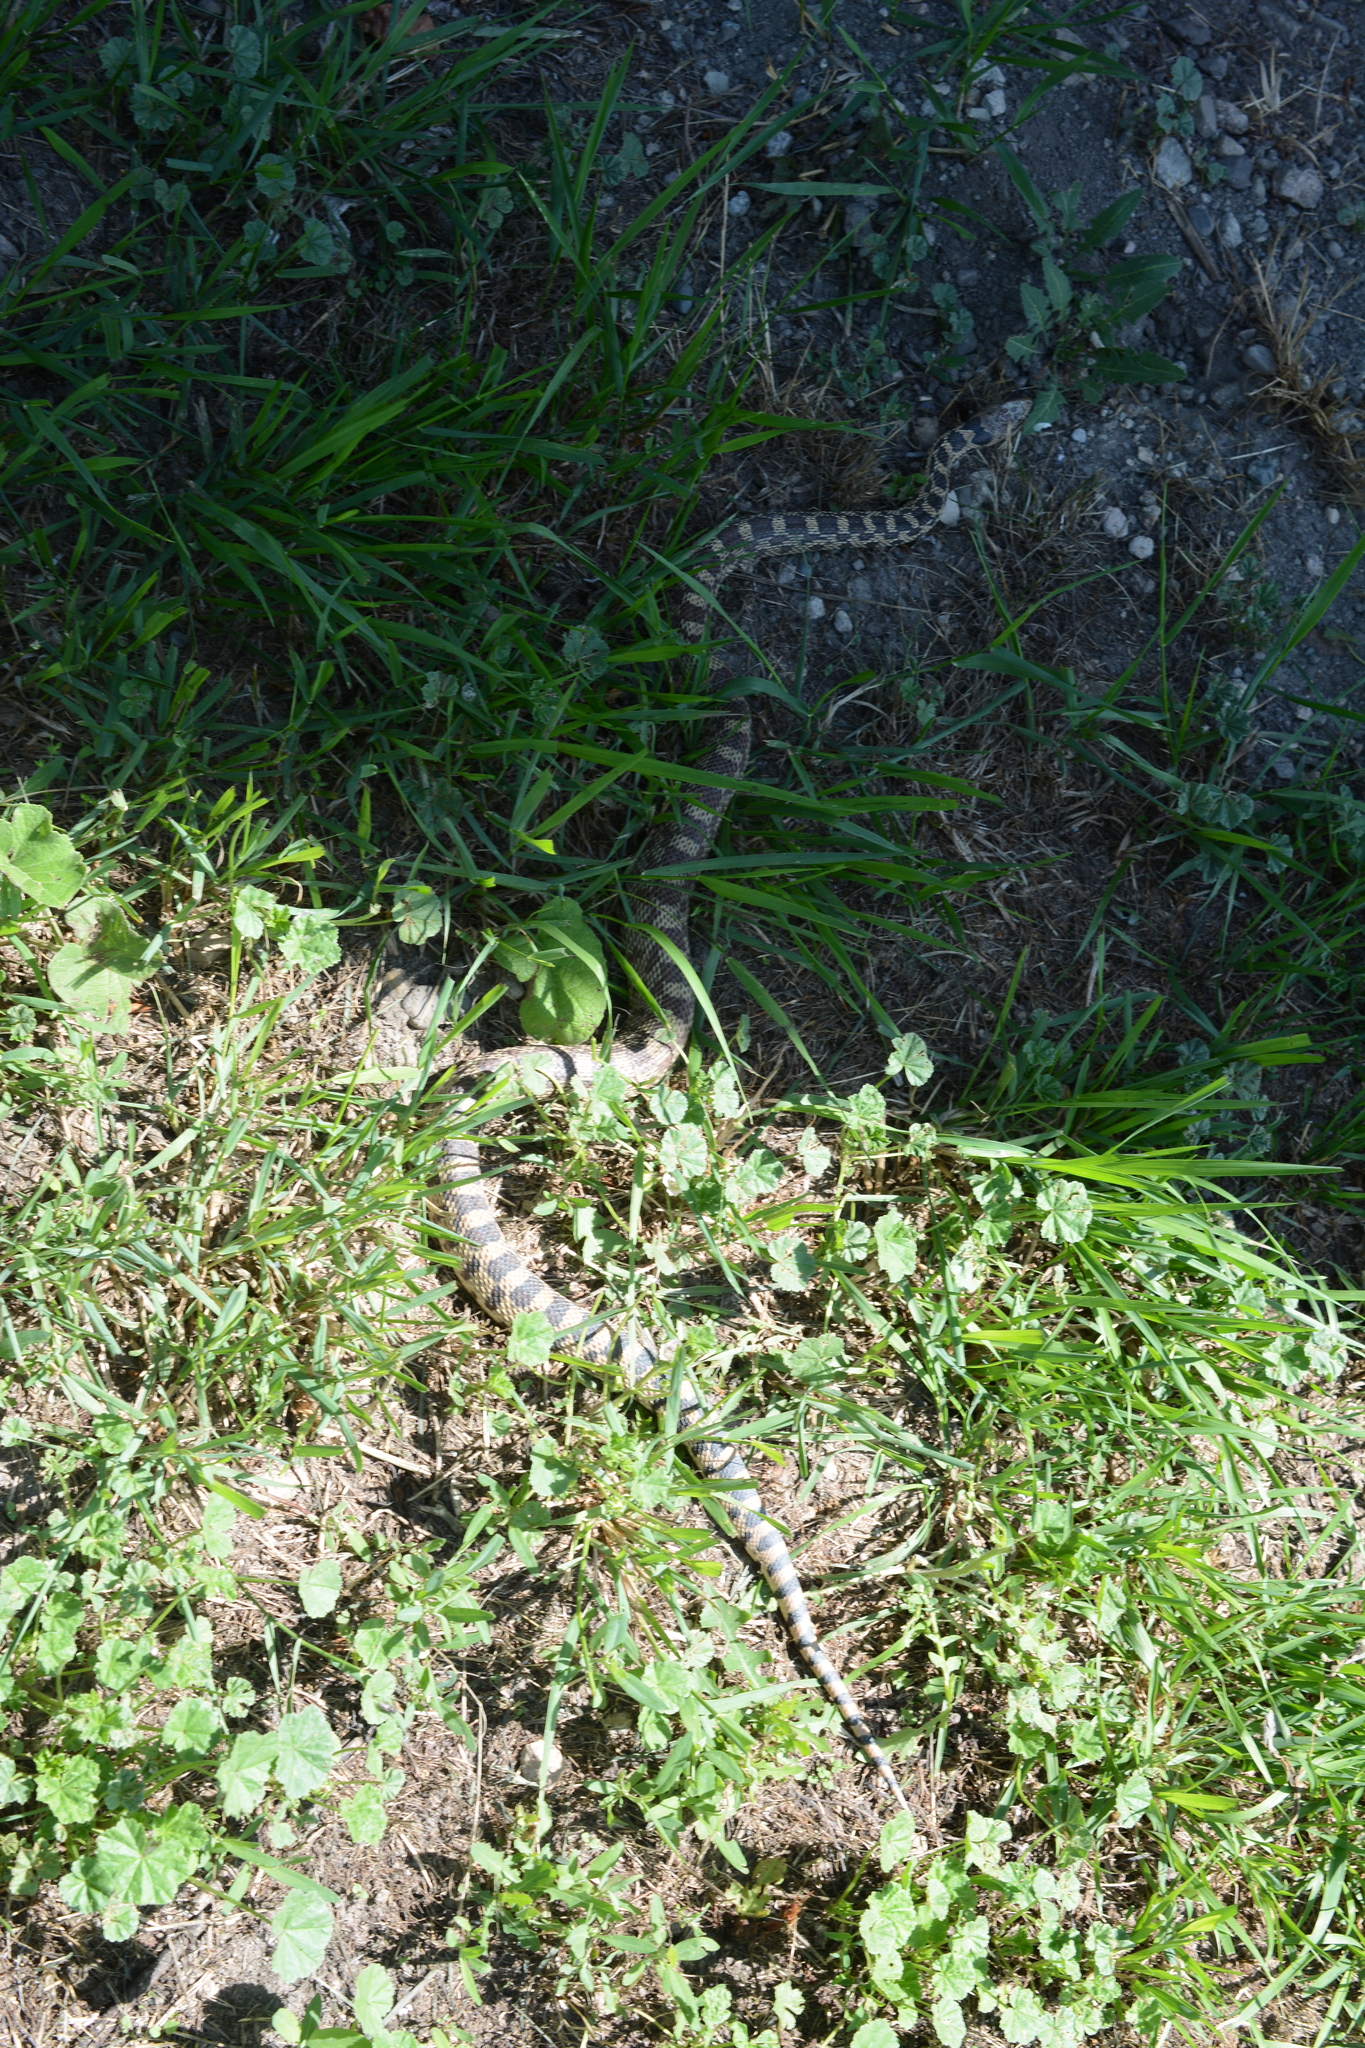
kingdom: Animalia
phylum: Chordata
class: Squamata
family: Colubridae
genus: Pituophis
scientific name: Pituophis catenifer
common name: Gopher snake
